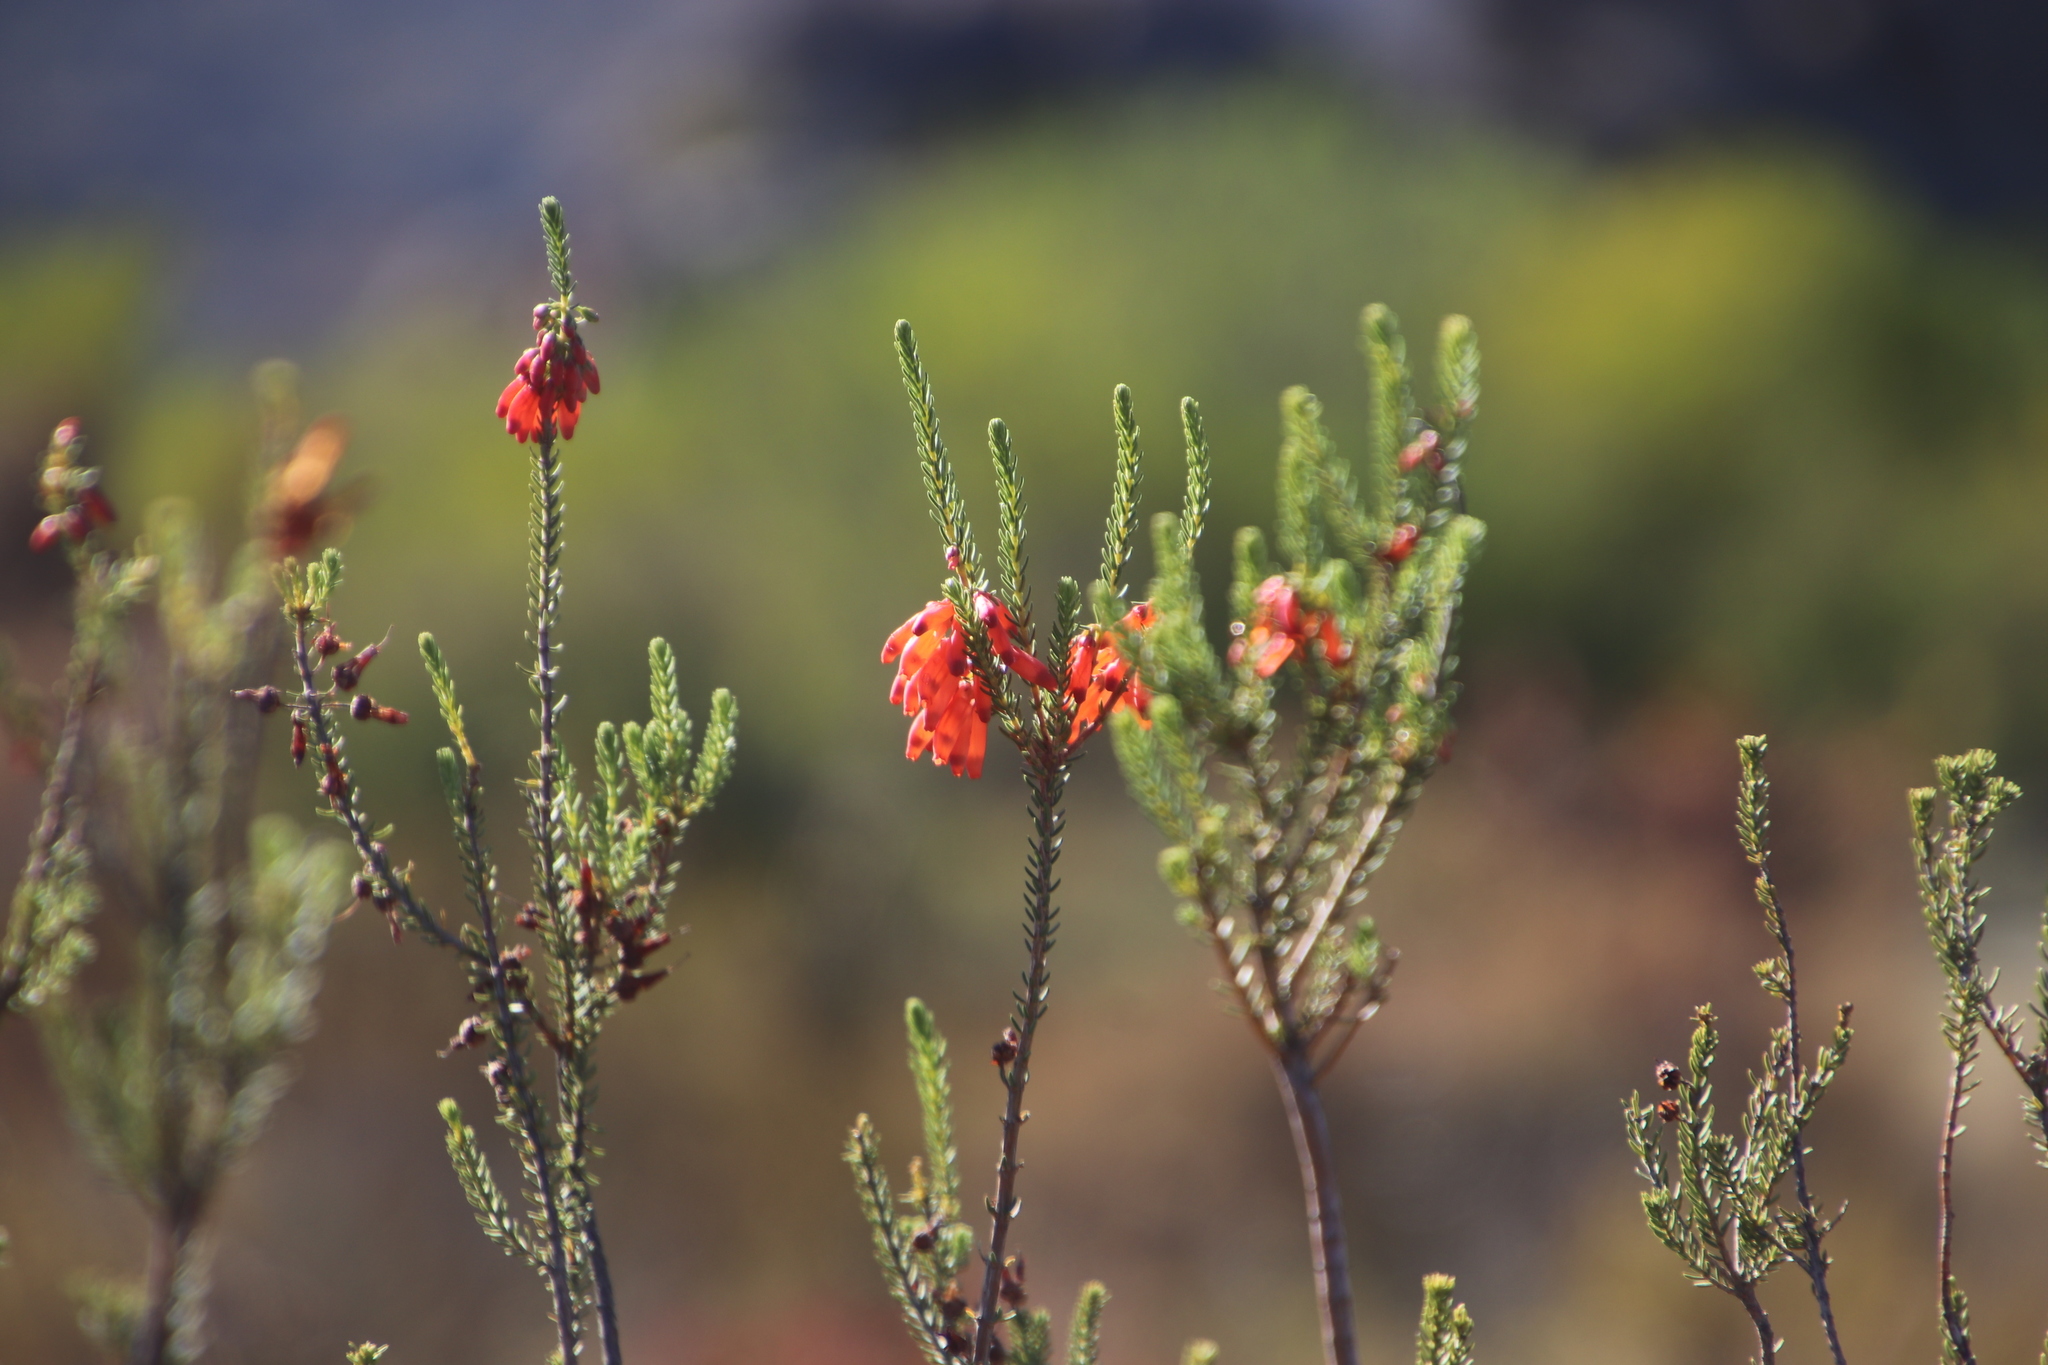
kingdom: Plantae
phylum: Tracheophyta
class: Magnoliopsida
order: Ericales
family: Ericaceae
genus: Erica
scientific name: Erica mammosa
